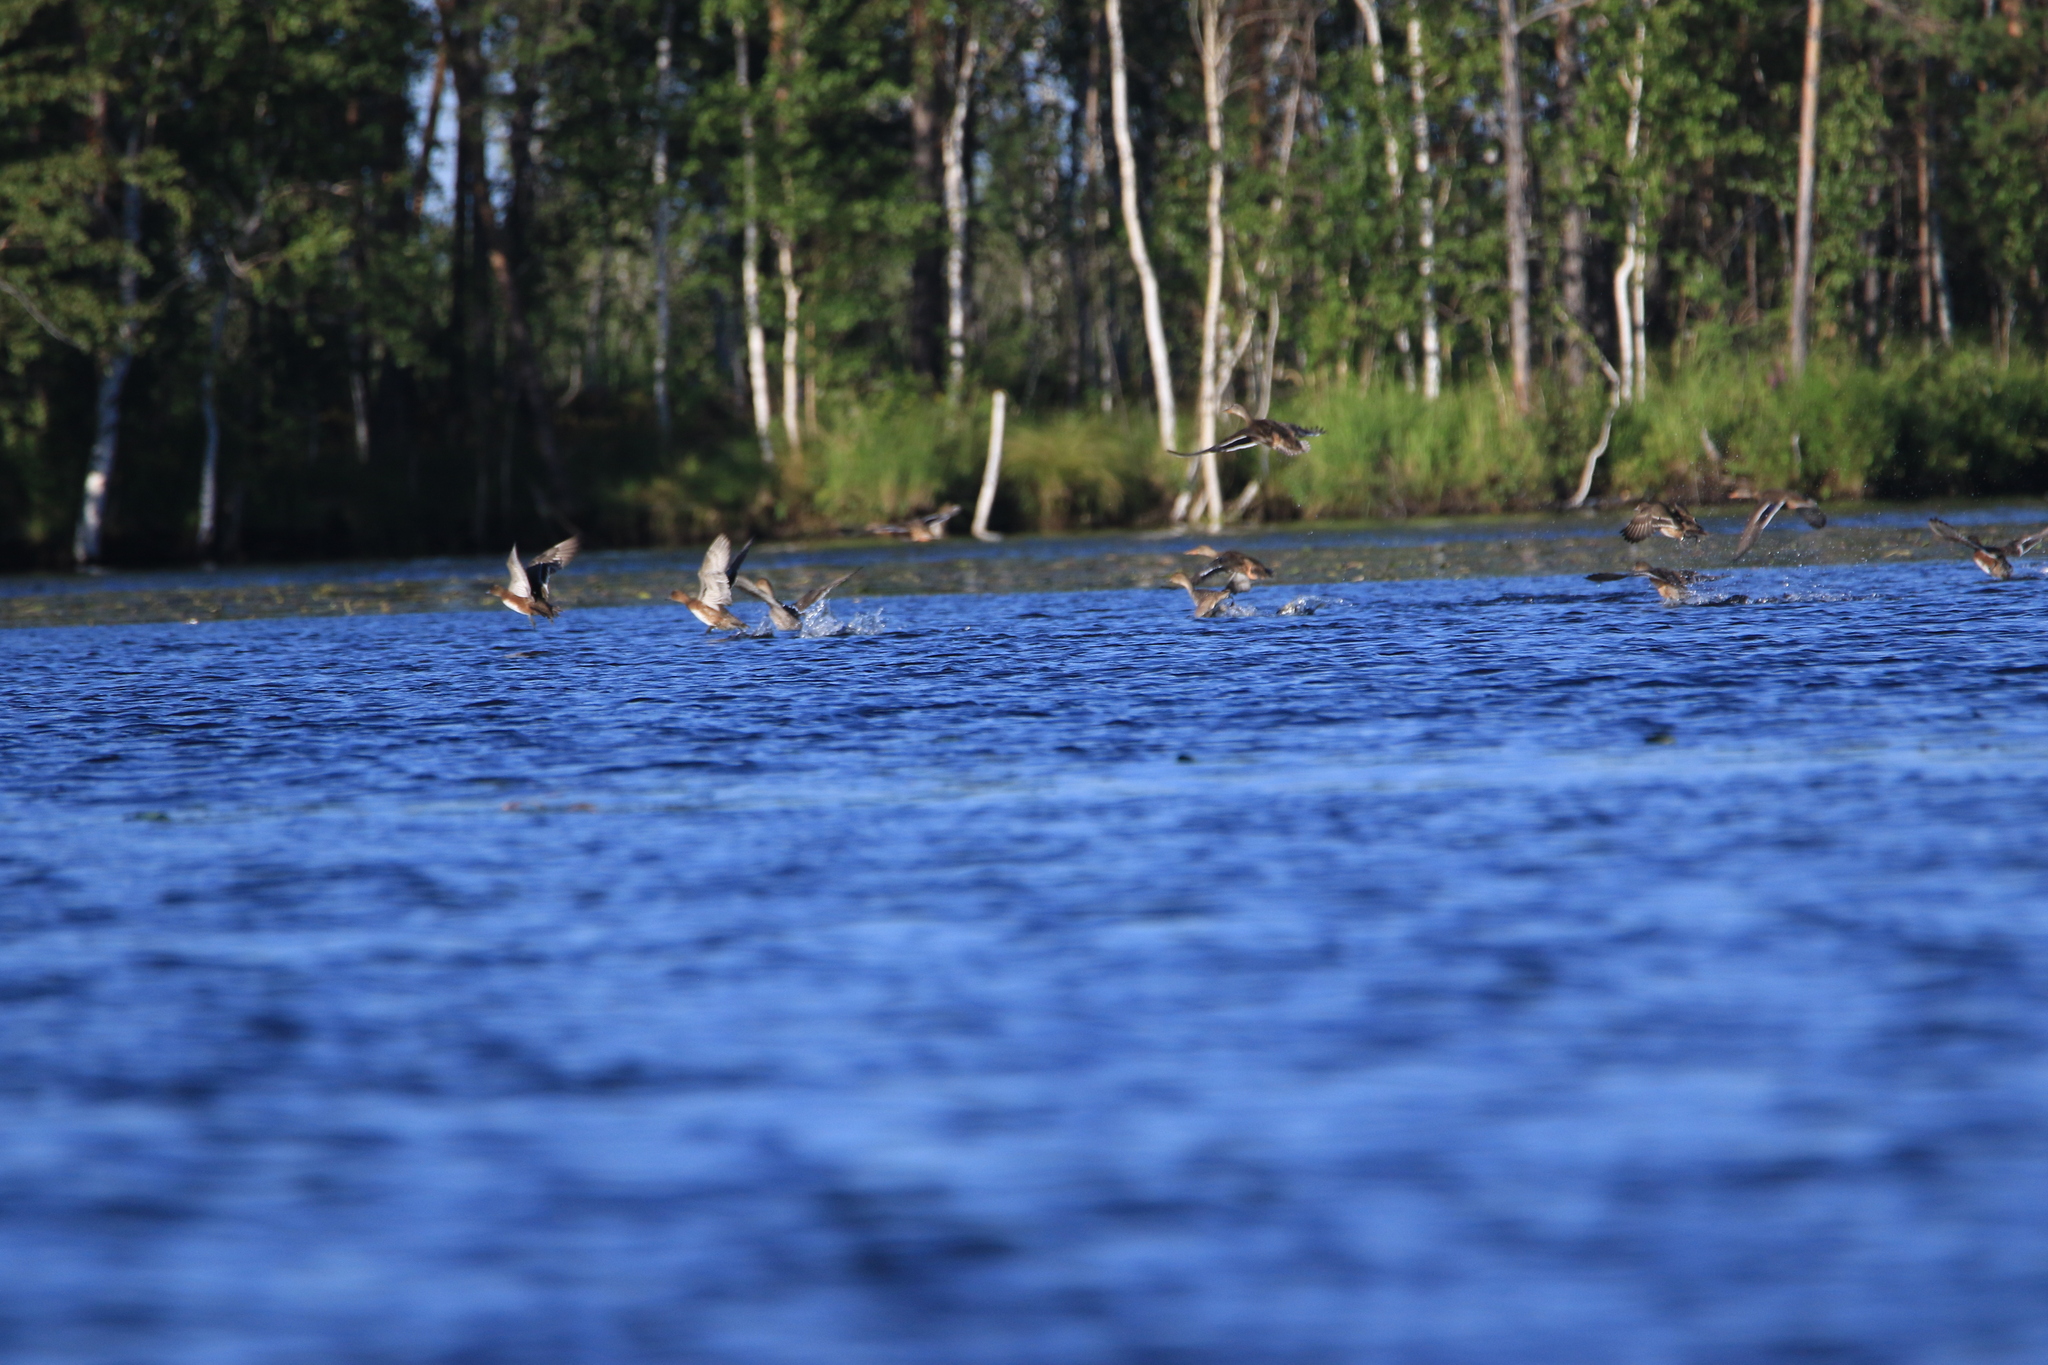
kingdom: Animalia
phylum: Chordata
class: Aves
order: Anseriformes
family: Anatidae
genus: Anas
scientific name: Anas crecca
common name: Eurasian teal
